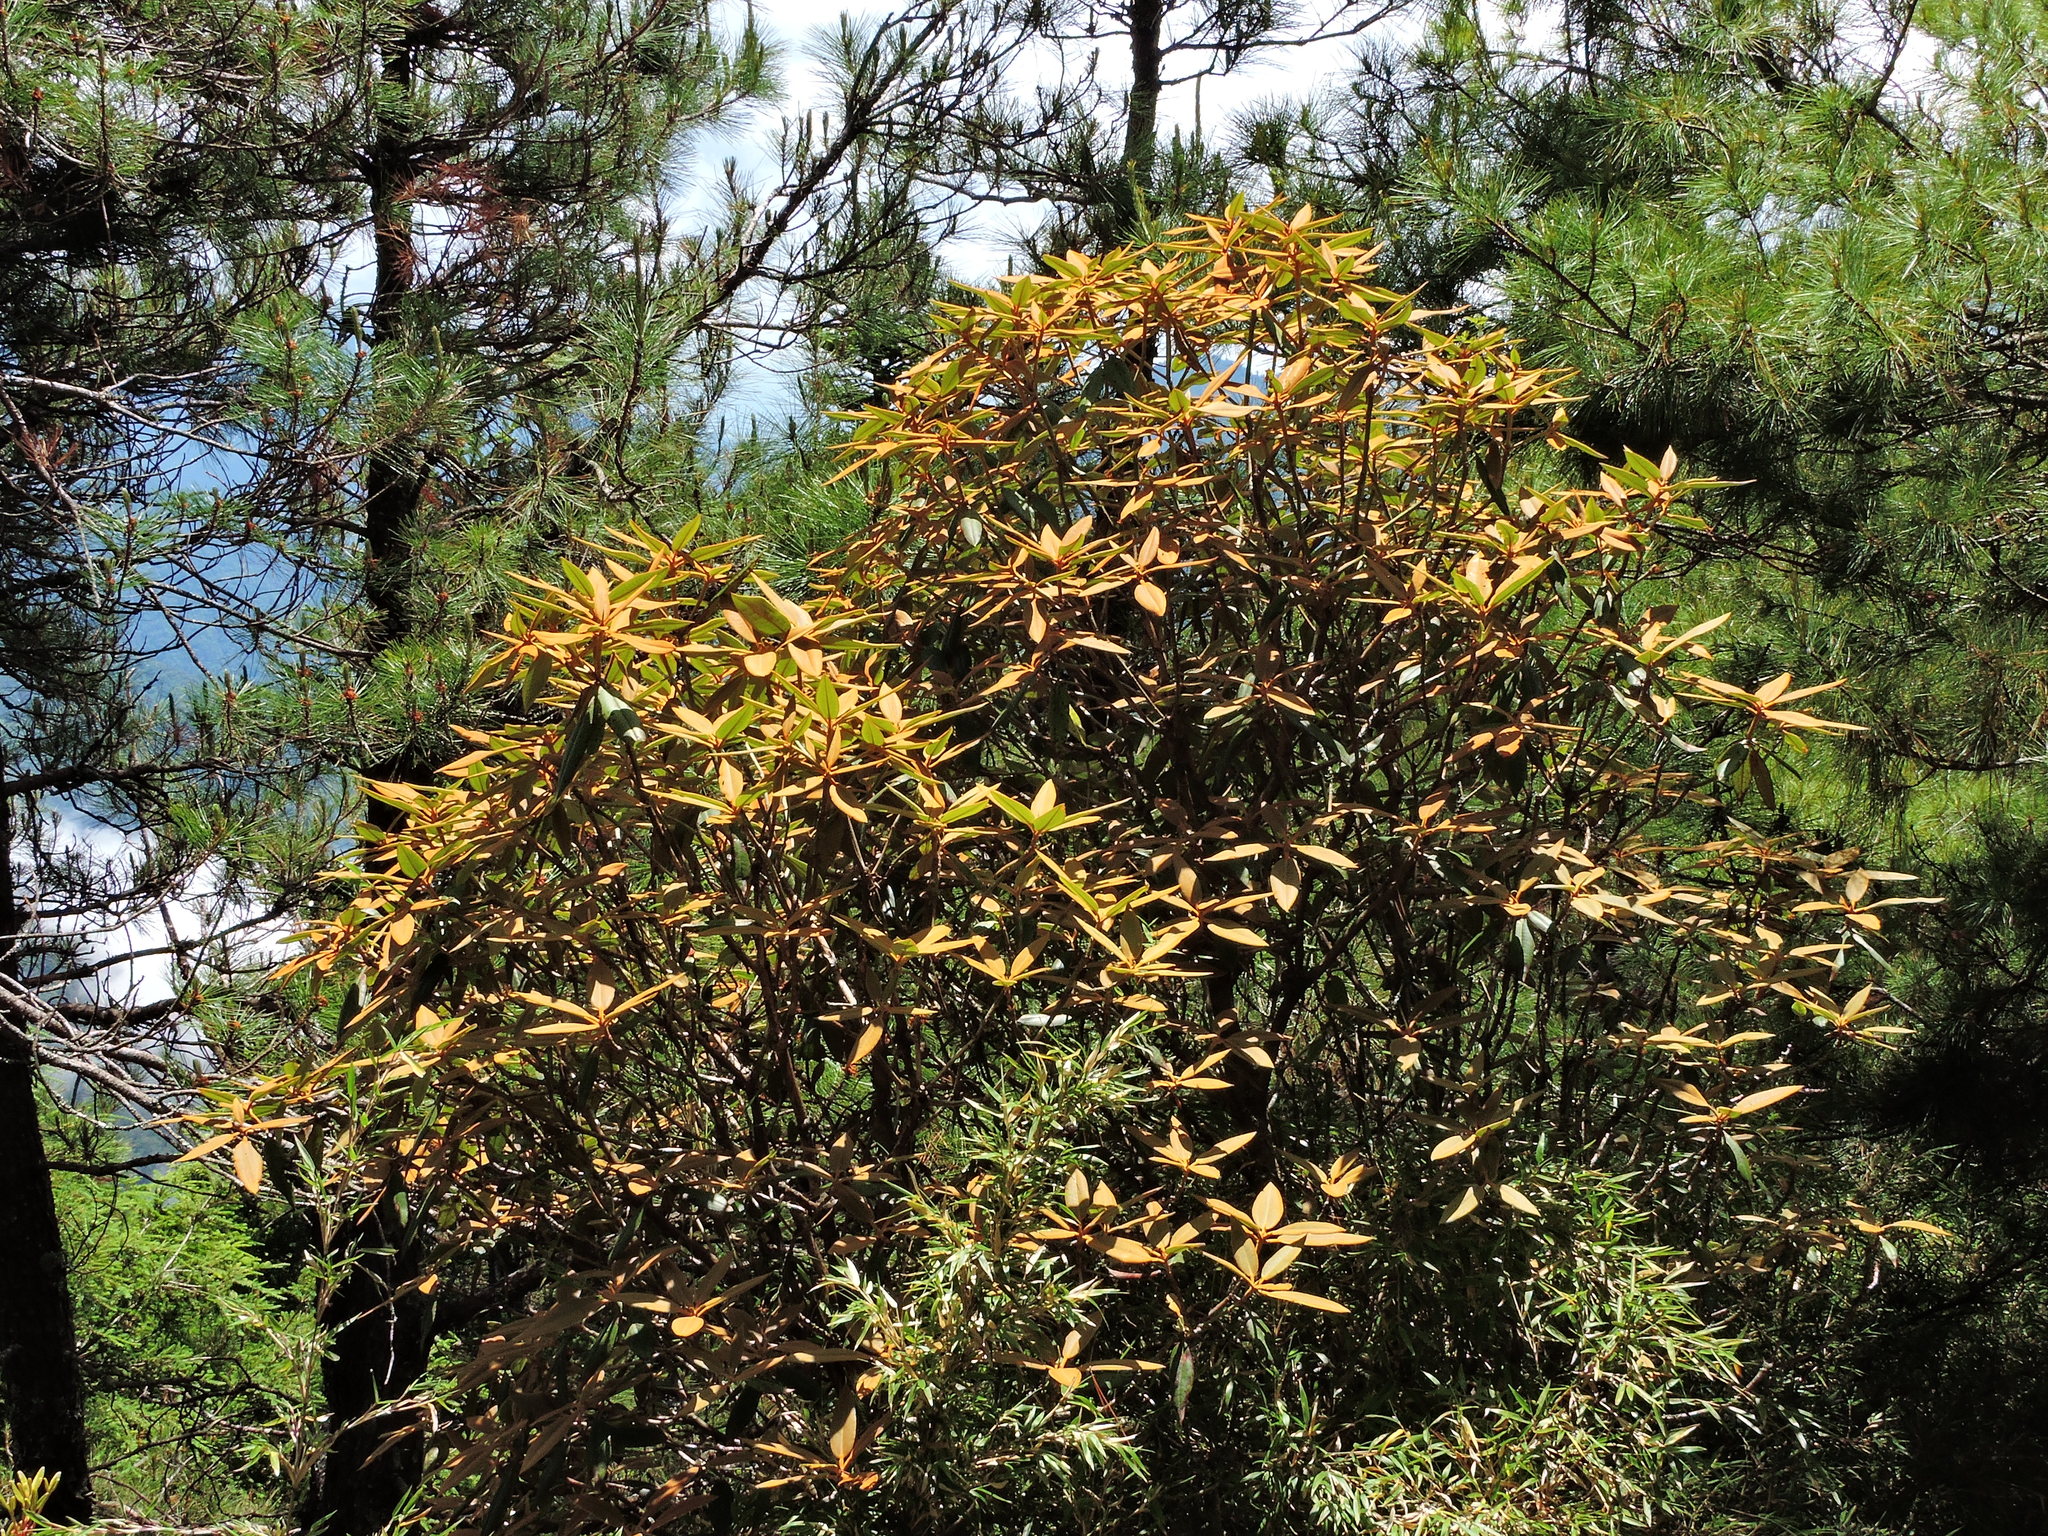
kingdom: Plantae
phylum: Tracheophyta
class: Magnoliopsida
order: Ericales
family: Ericaceae
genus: Rhododendron
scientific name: Rhododendron hyperythrum
